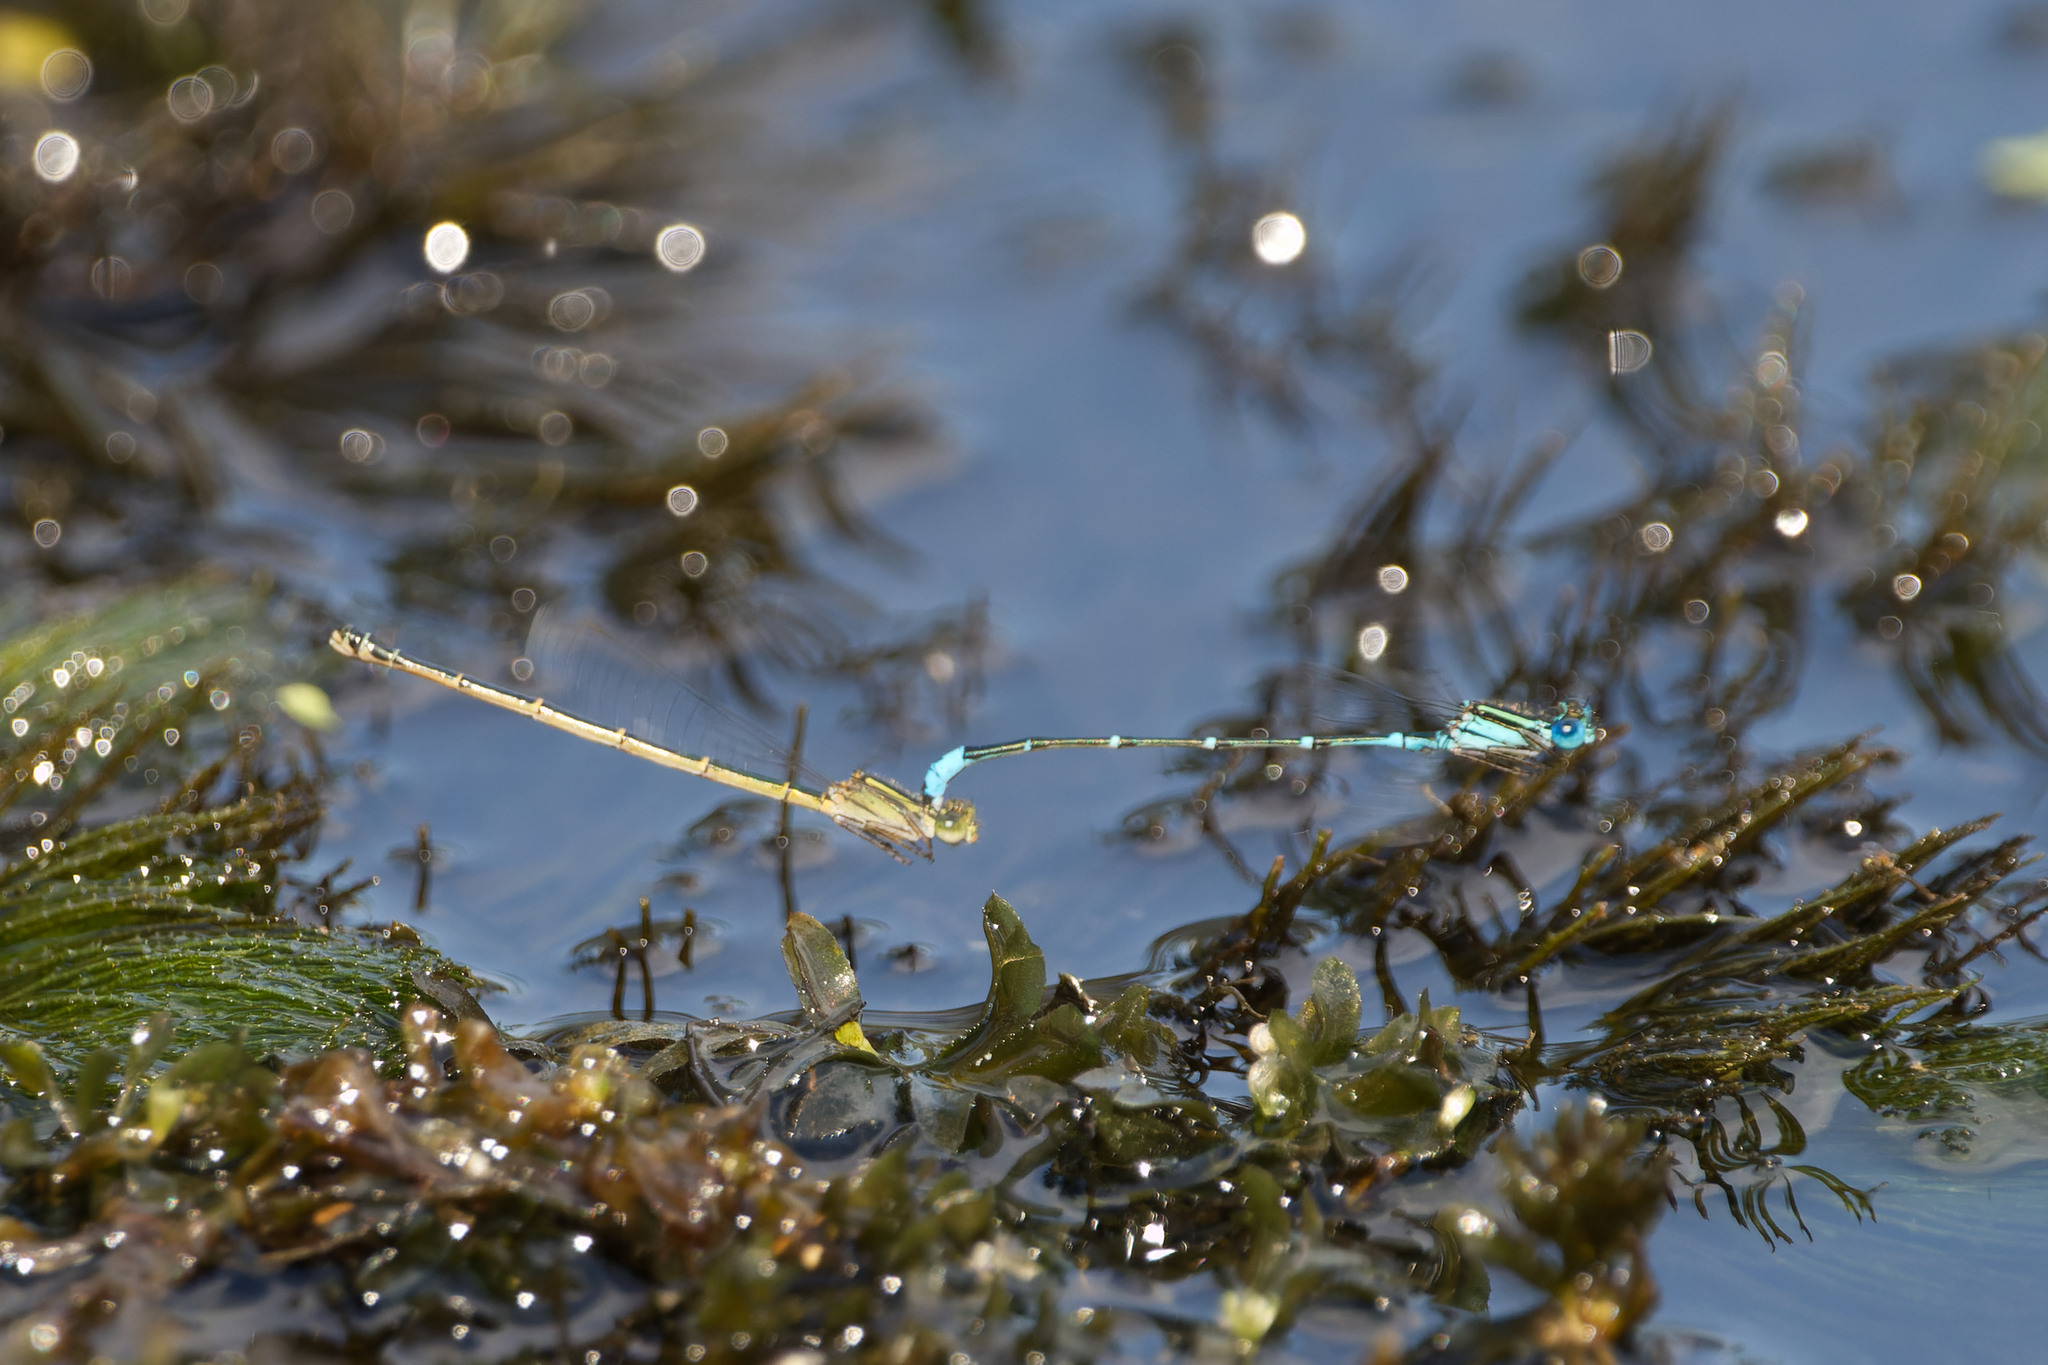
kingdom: Animalia
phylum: Arthropoda
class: Insecta
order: Odonata
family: Coenagrionidae
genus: Austroagrion
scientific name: Austroagrion watsoni
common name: Eastern billabongfly
